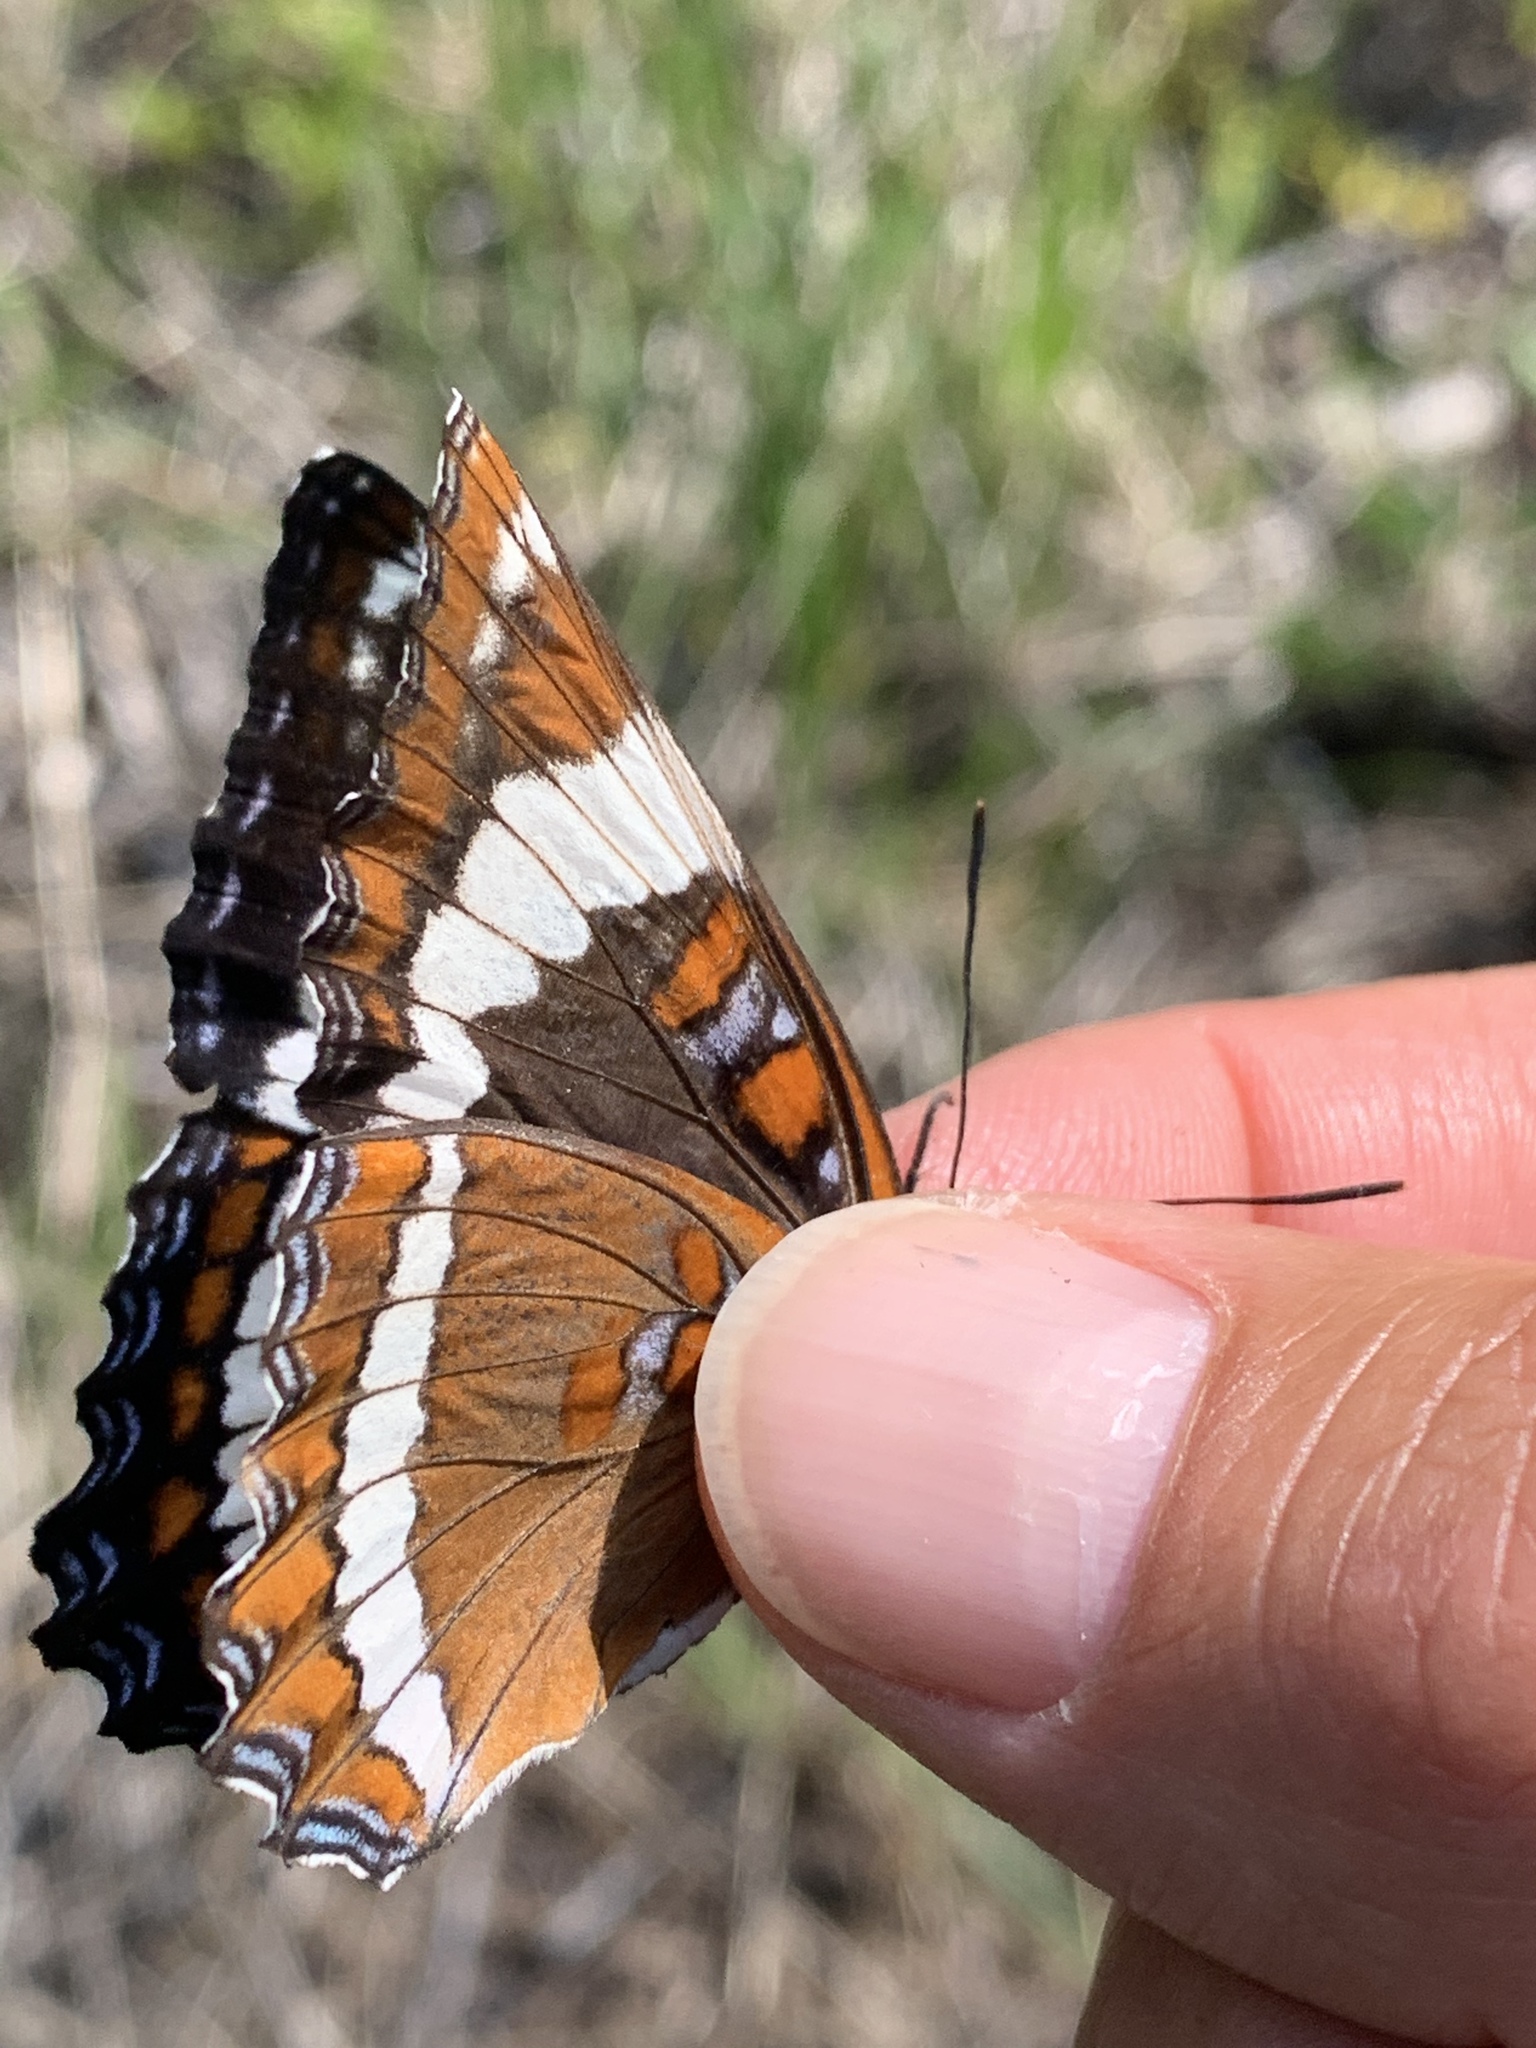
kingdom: Animalia
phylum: Arthropoda
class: Insecta
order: Lepidoptera
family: Nymphalidae
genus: Limenitis
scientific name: Limenitis arthemis
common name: Red-spotted admiral
